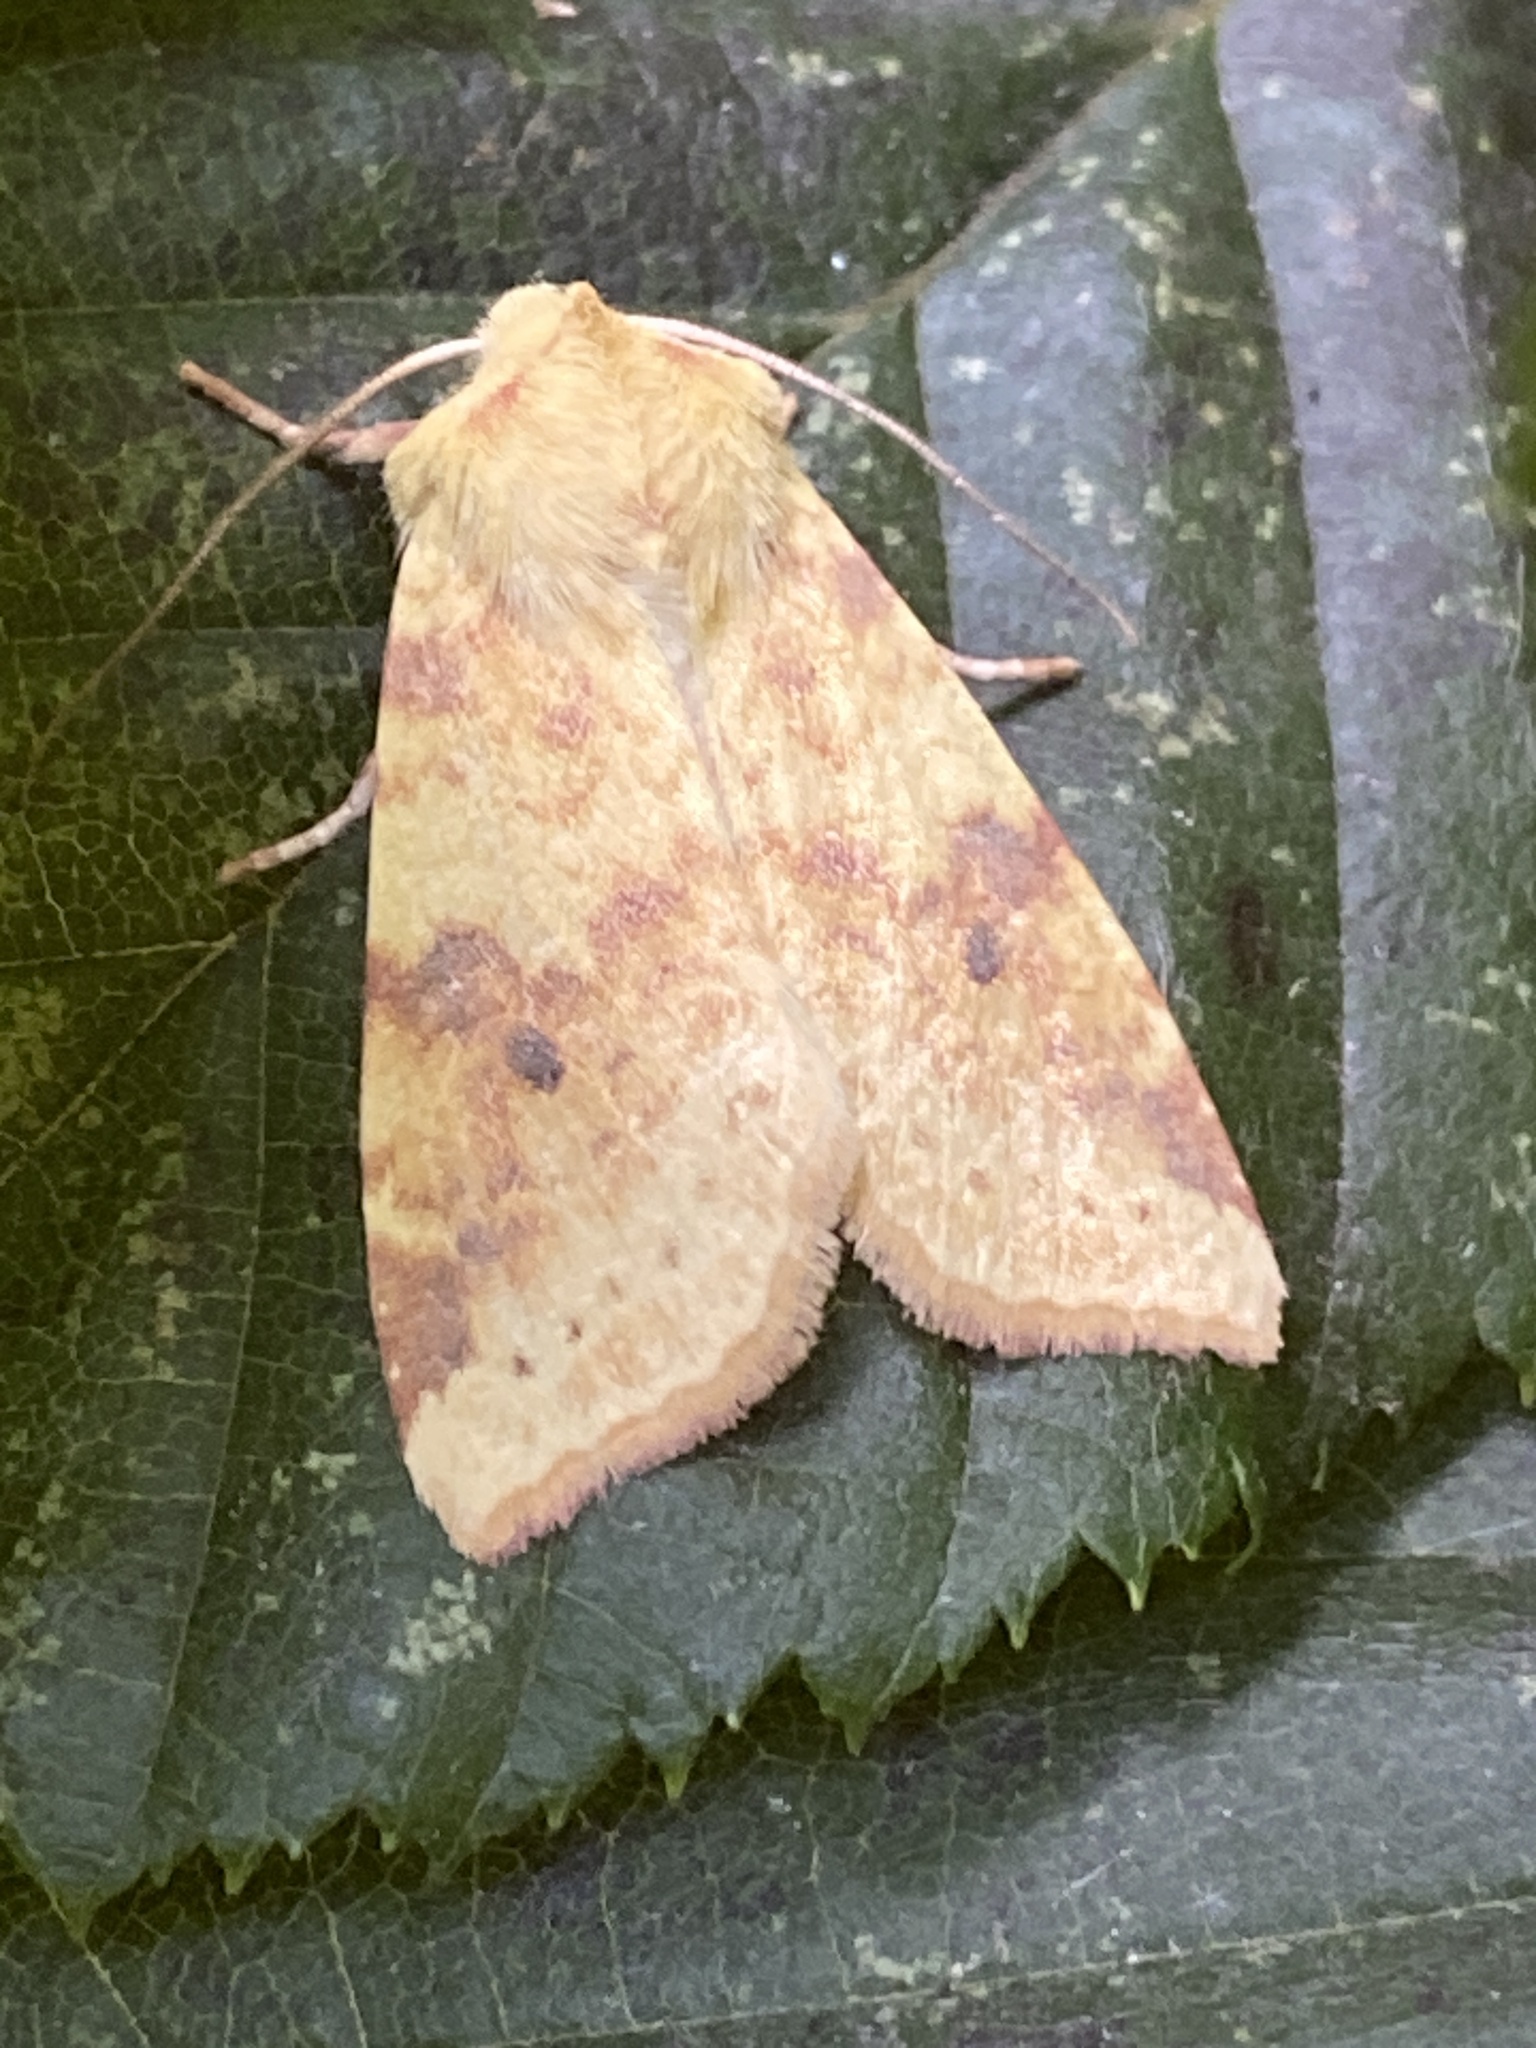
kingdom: Animalia
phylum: Arthropoda
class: Insecta
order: Lepidoptera
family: Noctuidae
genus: Xanthia
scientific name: Xanthia icteritia
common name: The sallow
